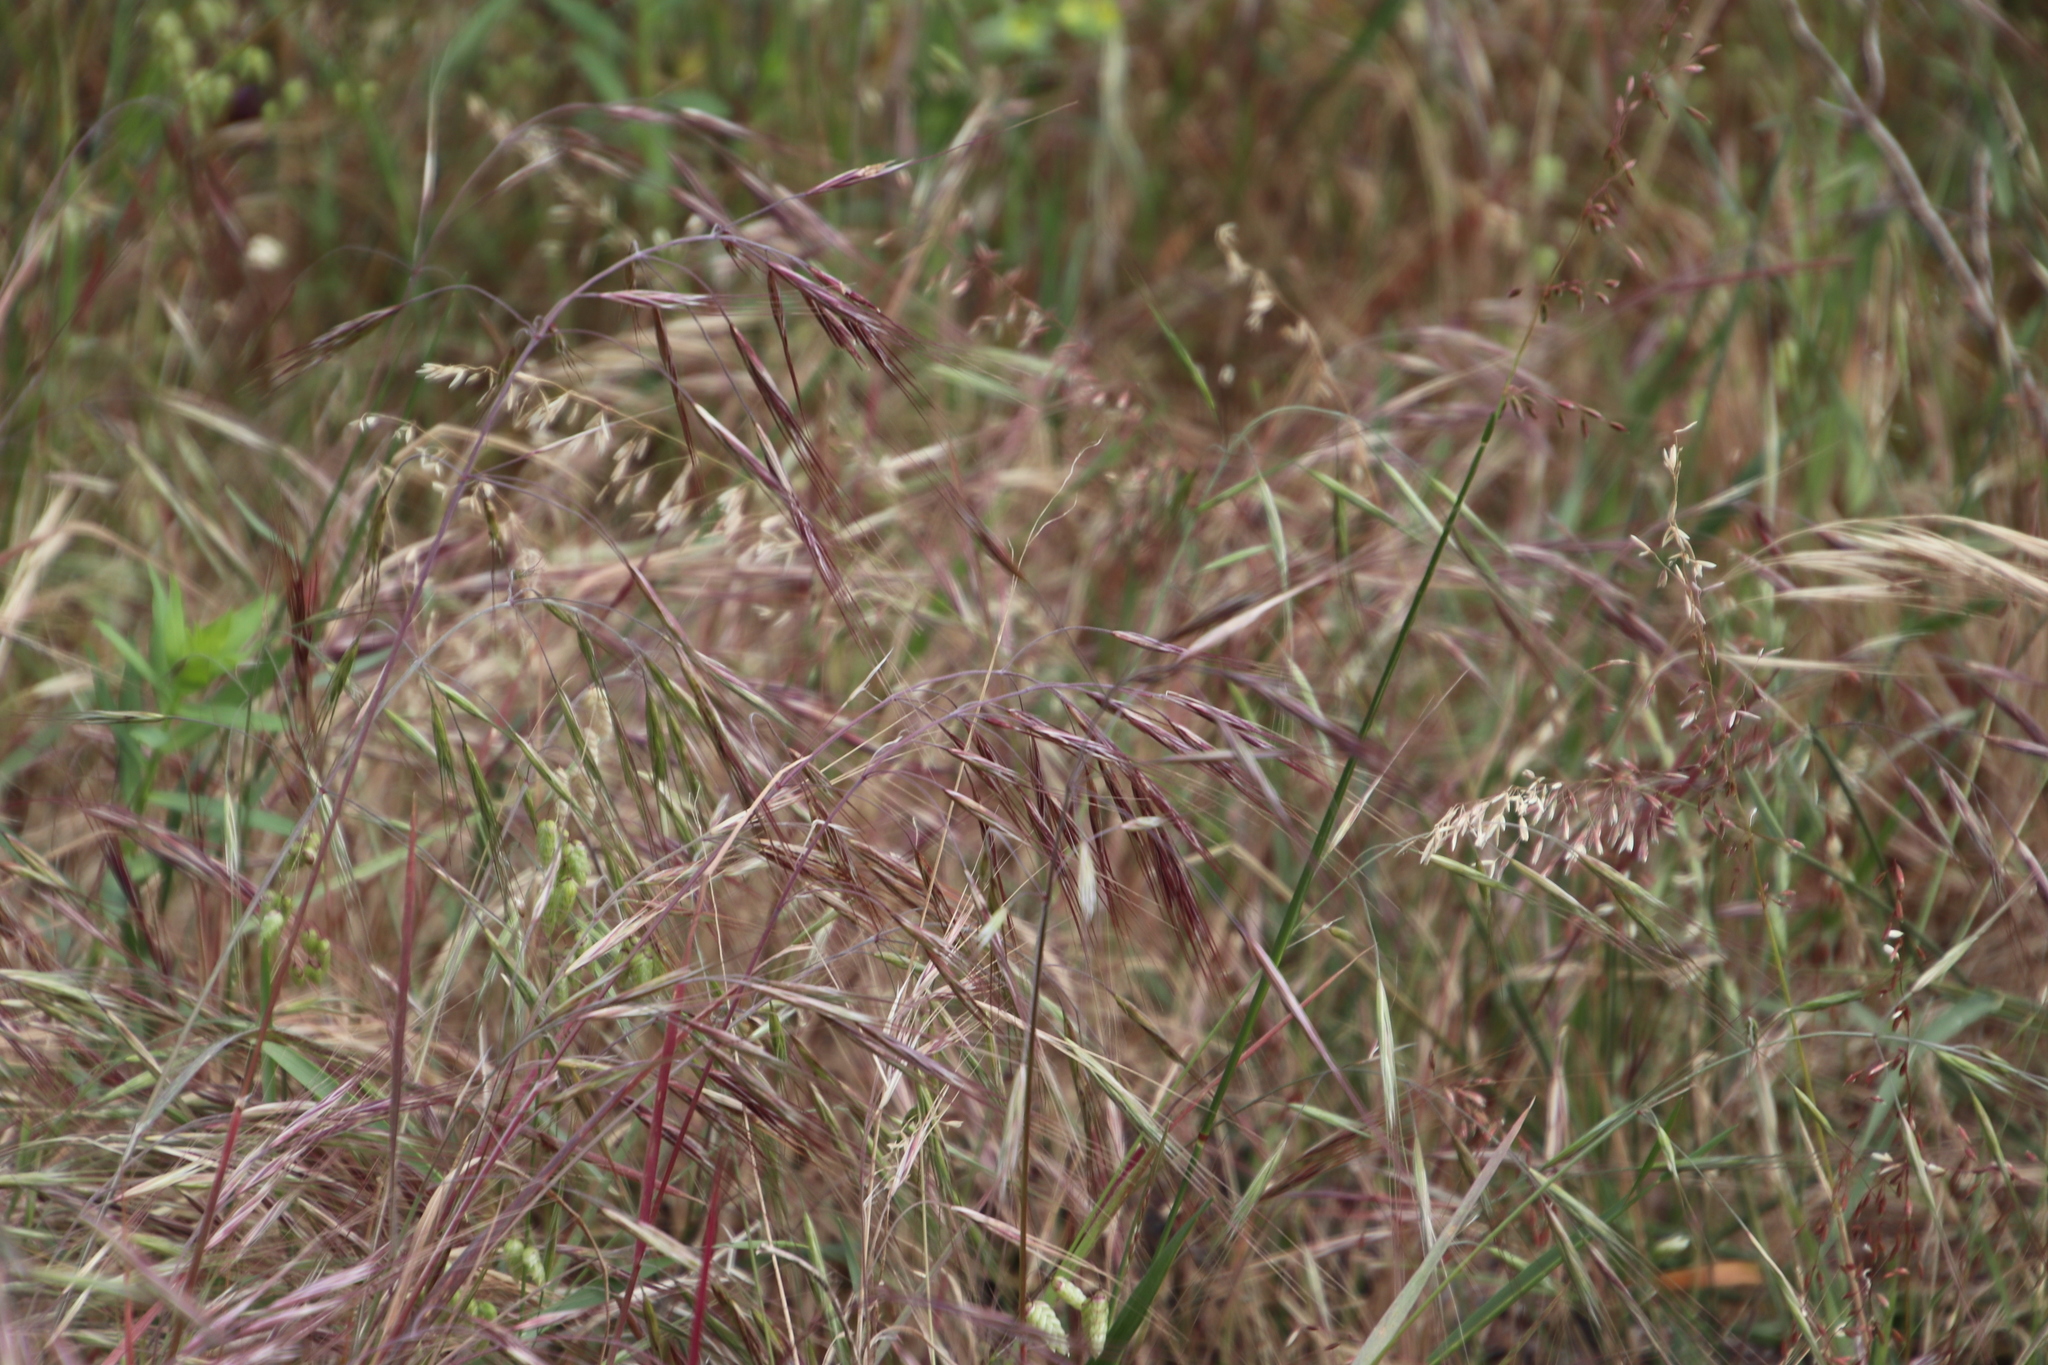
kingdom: Plantae
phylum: Tracheophyta
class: Liliopsida
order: Poales
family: Poaceae
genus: Bromus
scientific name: Bromus diandrus
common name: Ripgut brome
